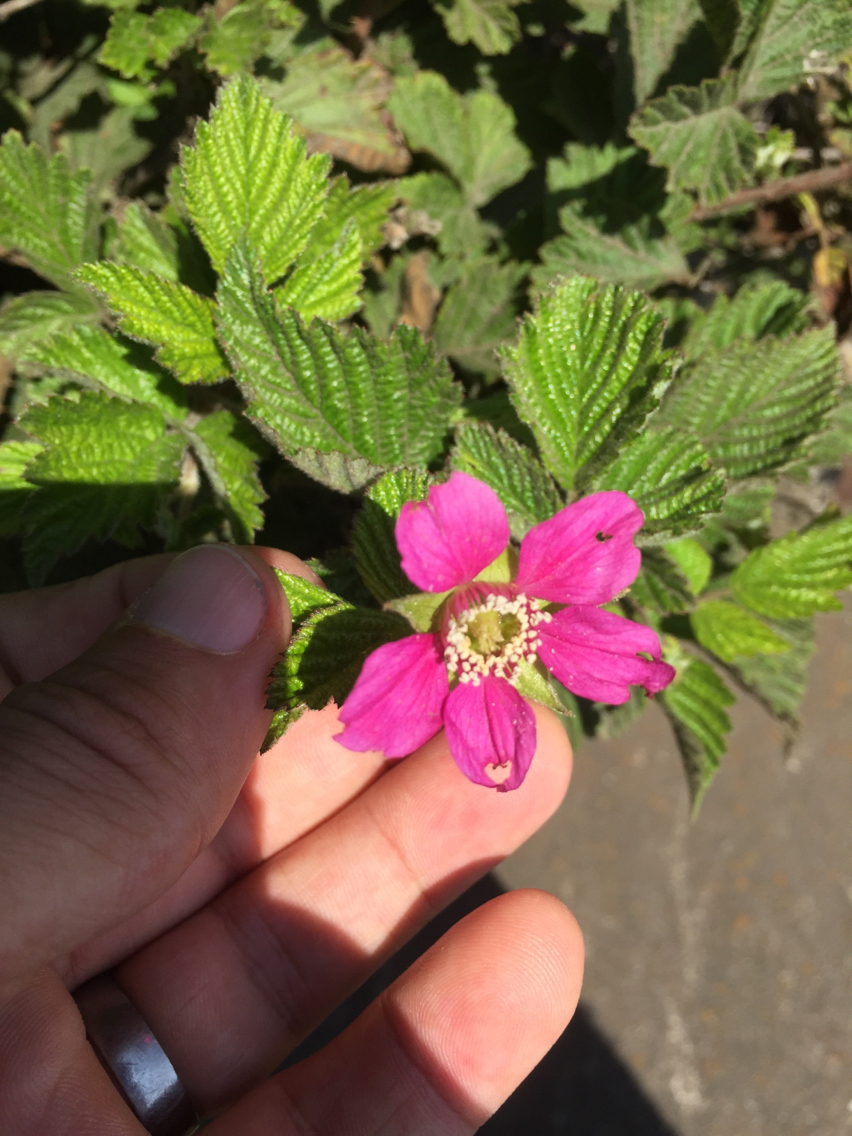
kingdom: Plantae
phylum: Tracheophyta
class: Magnoliopsida
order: Rosales
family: Rosaceae
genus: Rubus
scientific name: Rubus spectabilis
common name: Salmonberry
